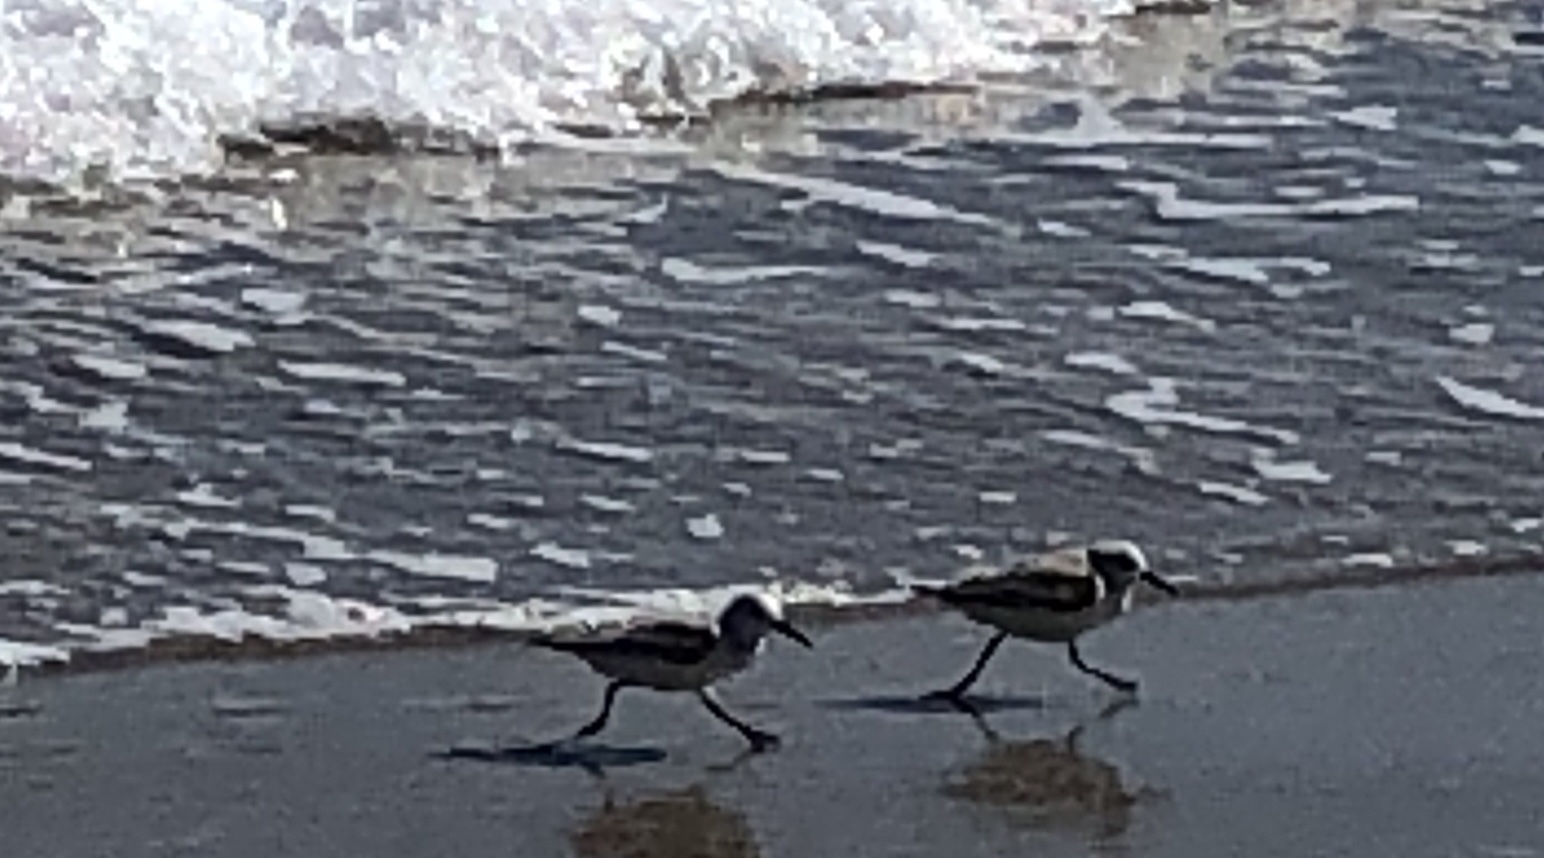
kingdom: Animalia
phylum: Chordata
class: Aves
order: Charadriiformes
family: Scolopacidae
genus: Calidris
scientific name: Calidris alba
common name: Sanderling
